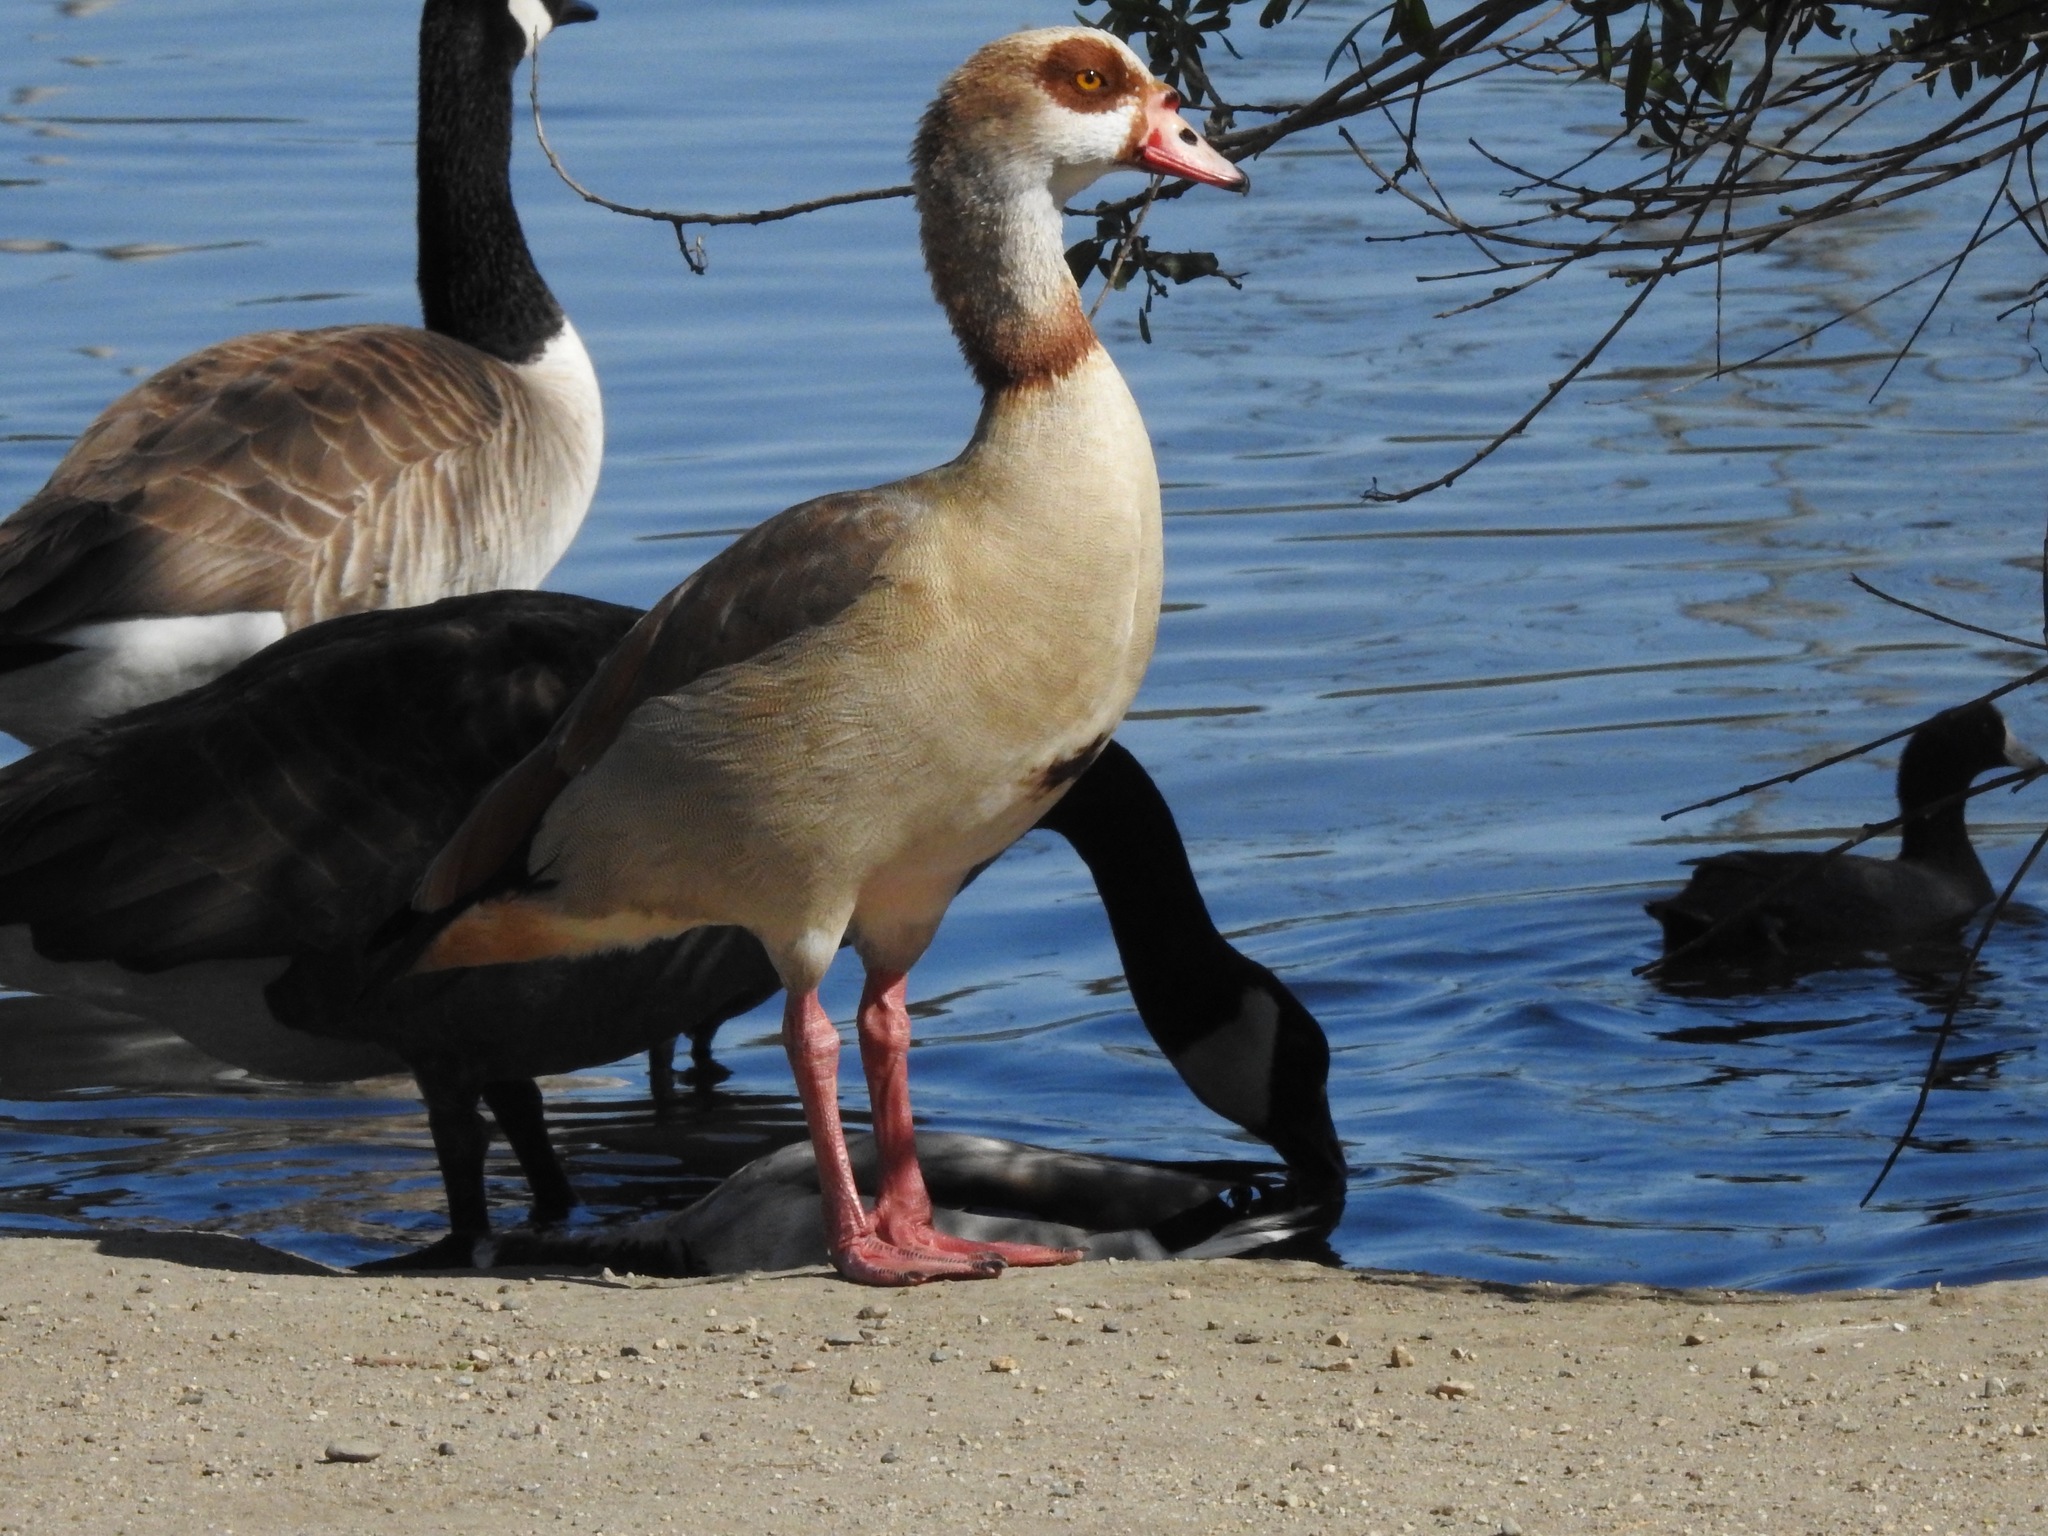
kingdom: Animalia
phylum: Chordata
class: Aves
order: Anseriformes
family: Anatidae
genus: Alopochen
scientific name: Alopochen aegyptiaca
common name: Egyptian goose
